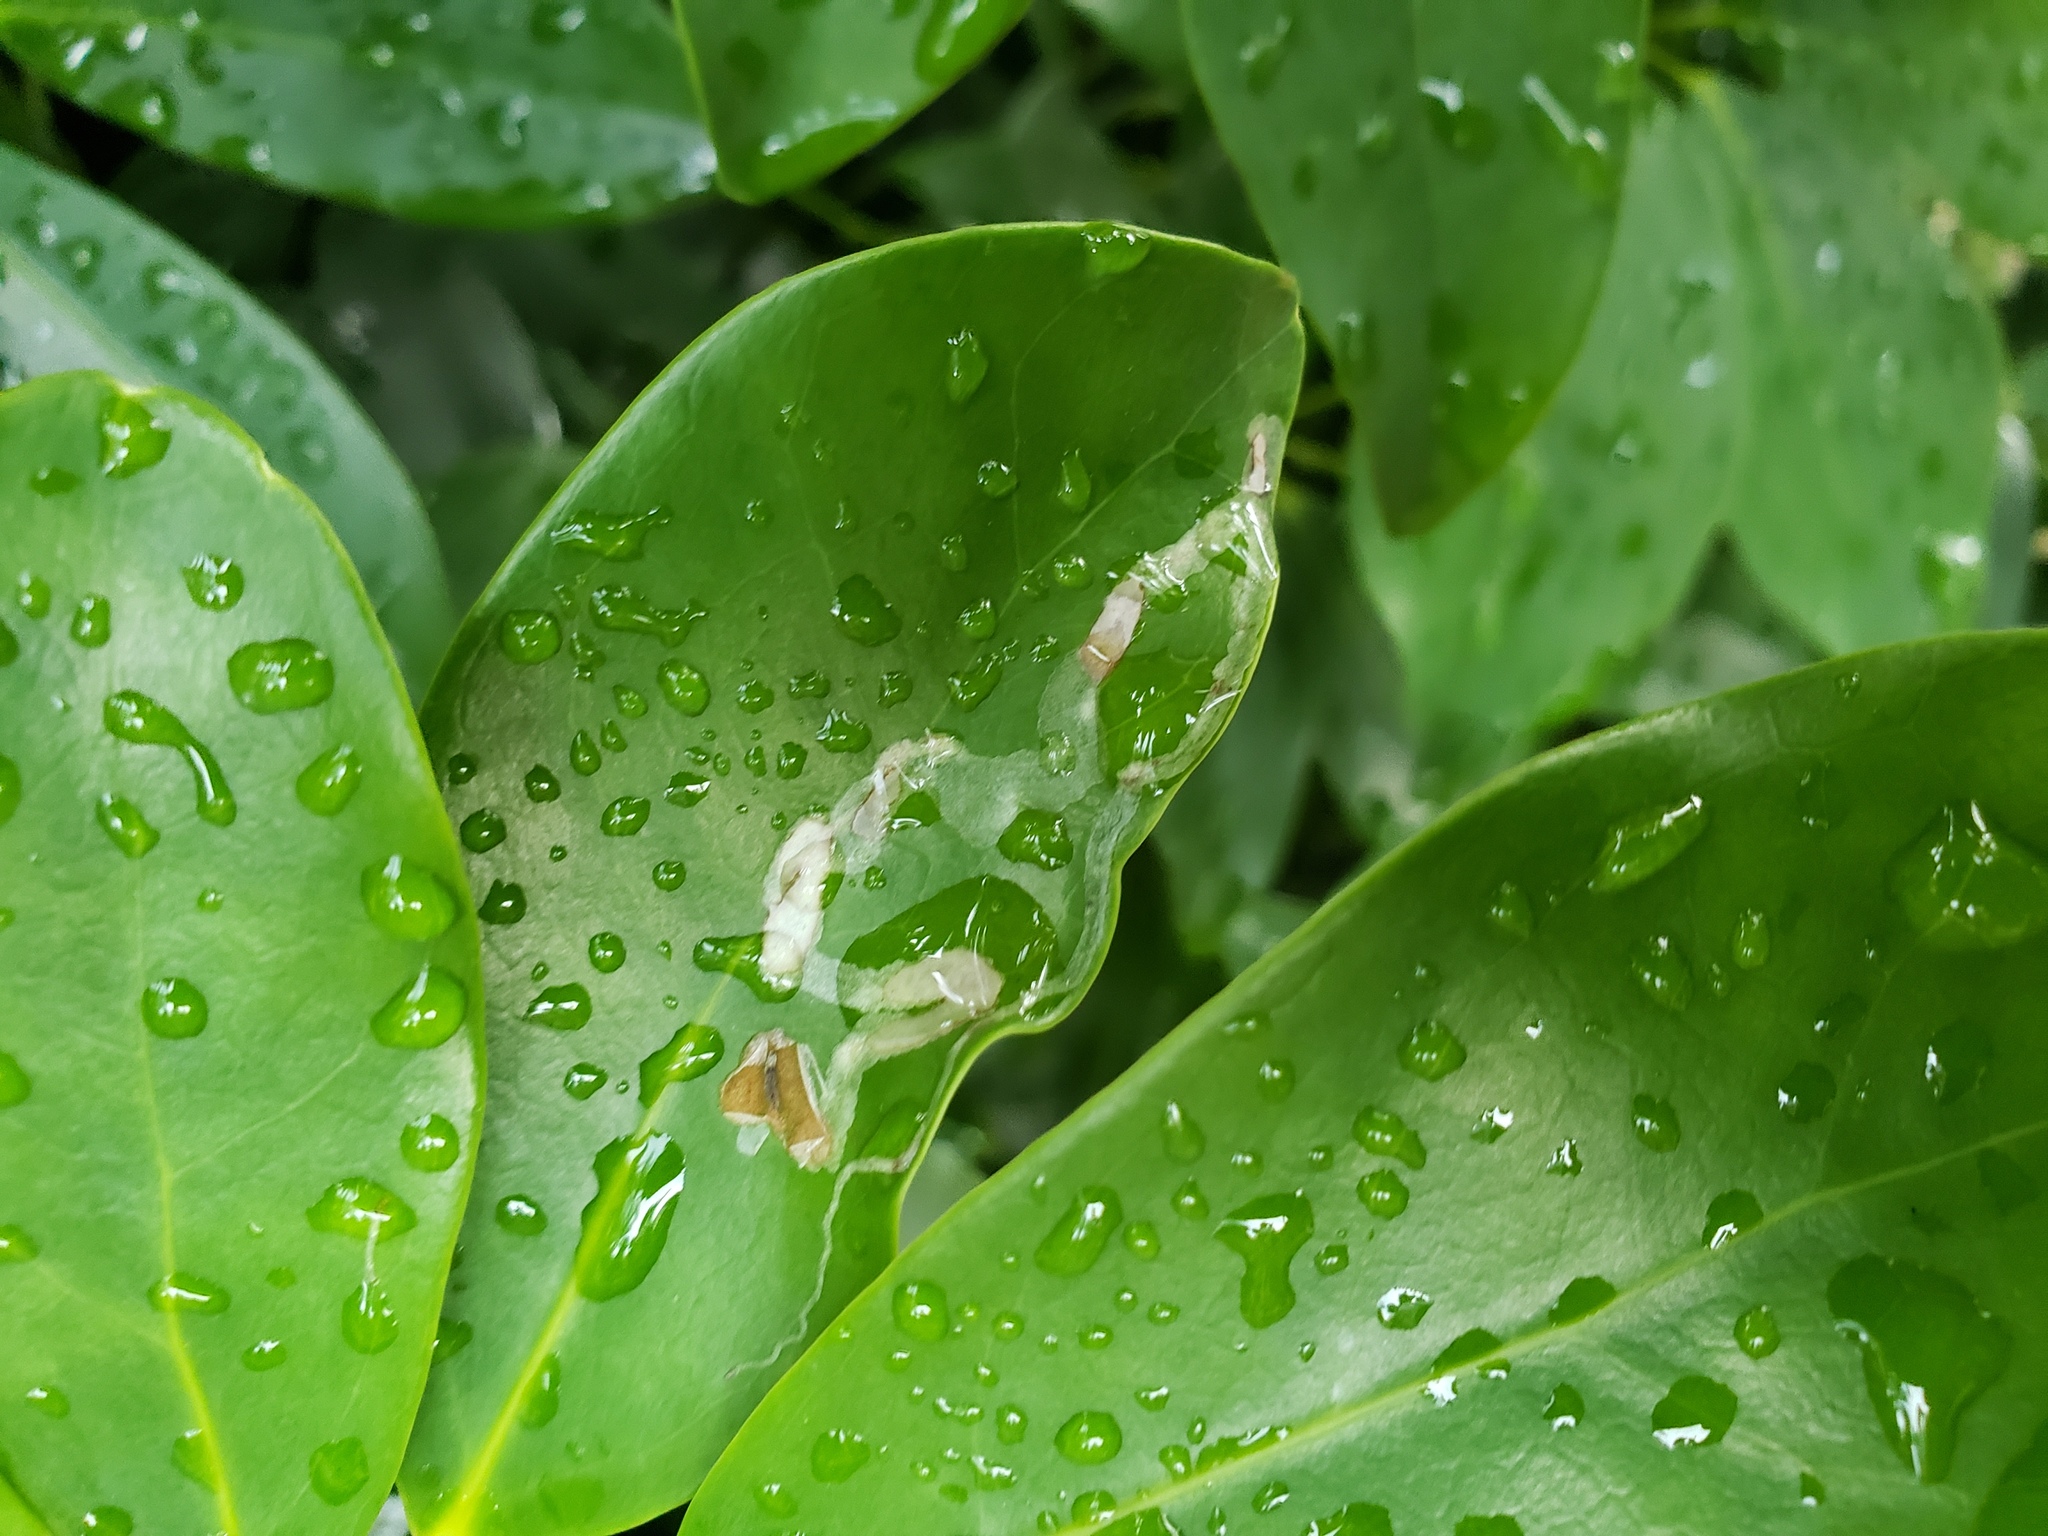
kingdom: Animalia
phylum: Arthropoda
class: Insecta
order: Diptera
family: Agromyzidae
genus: Liriomyza
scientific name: Liriomyza schmidti
